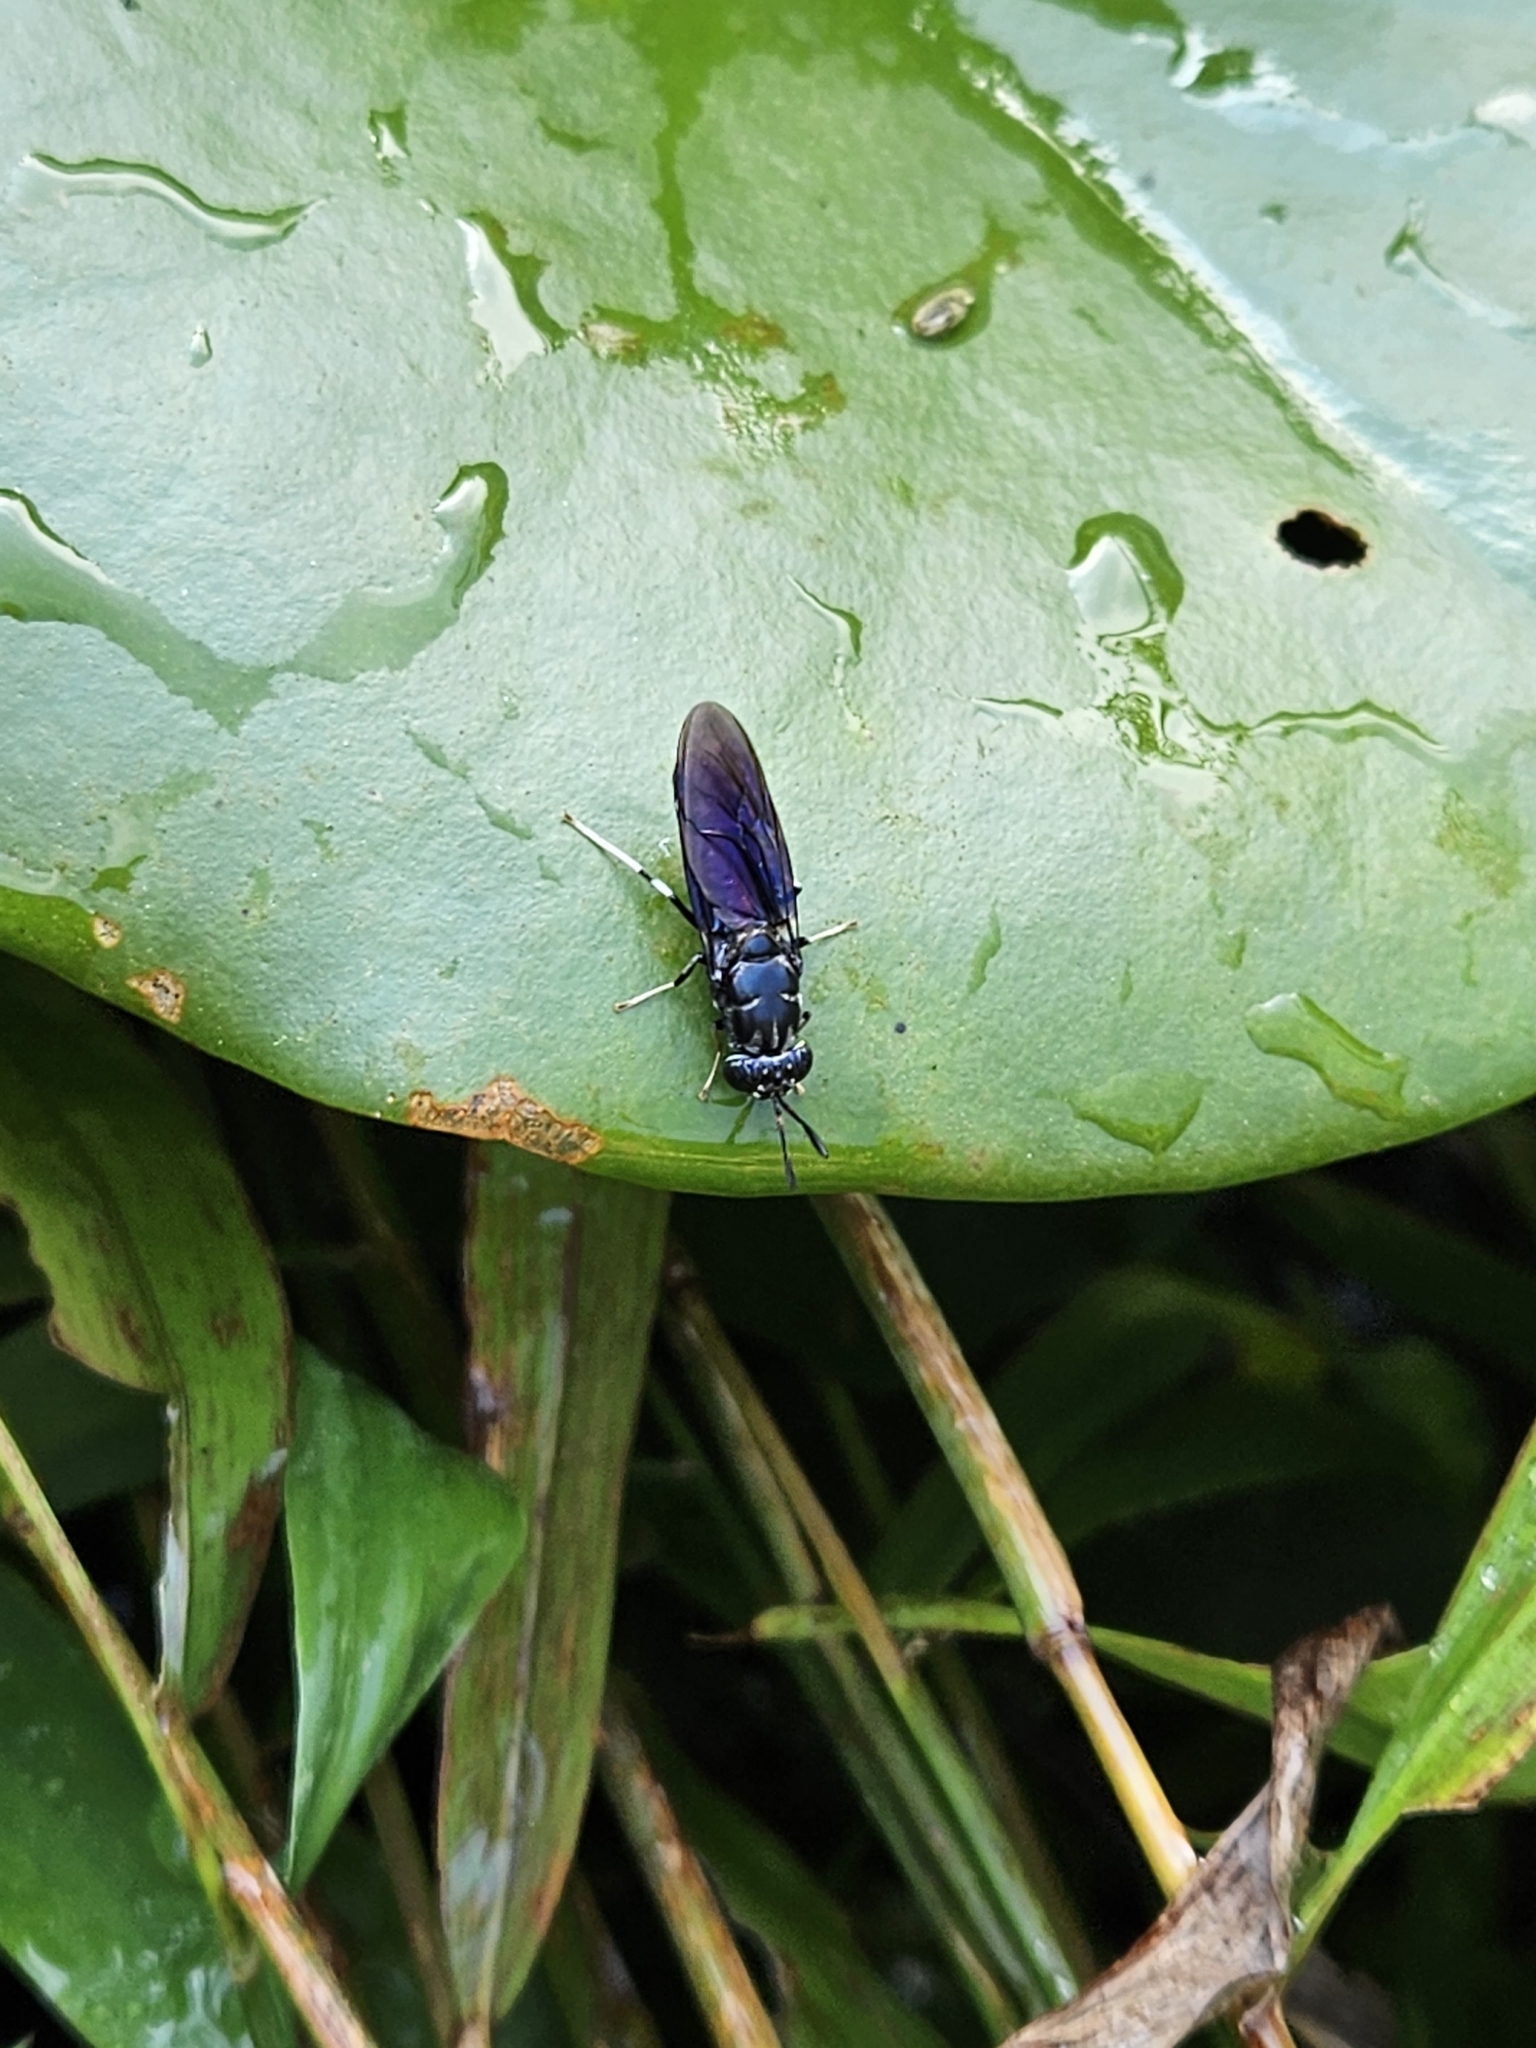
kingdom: Animalia
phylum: Arthropoda
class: Insecta
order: Diptera
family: Stratiomyidae
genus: Hermetia
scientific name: Hermetia illucens
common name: Black soldier fly
